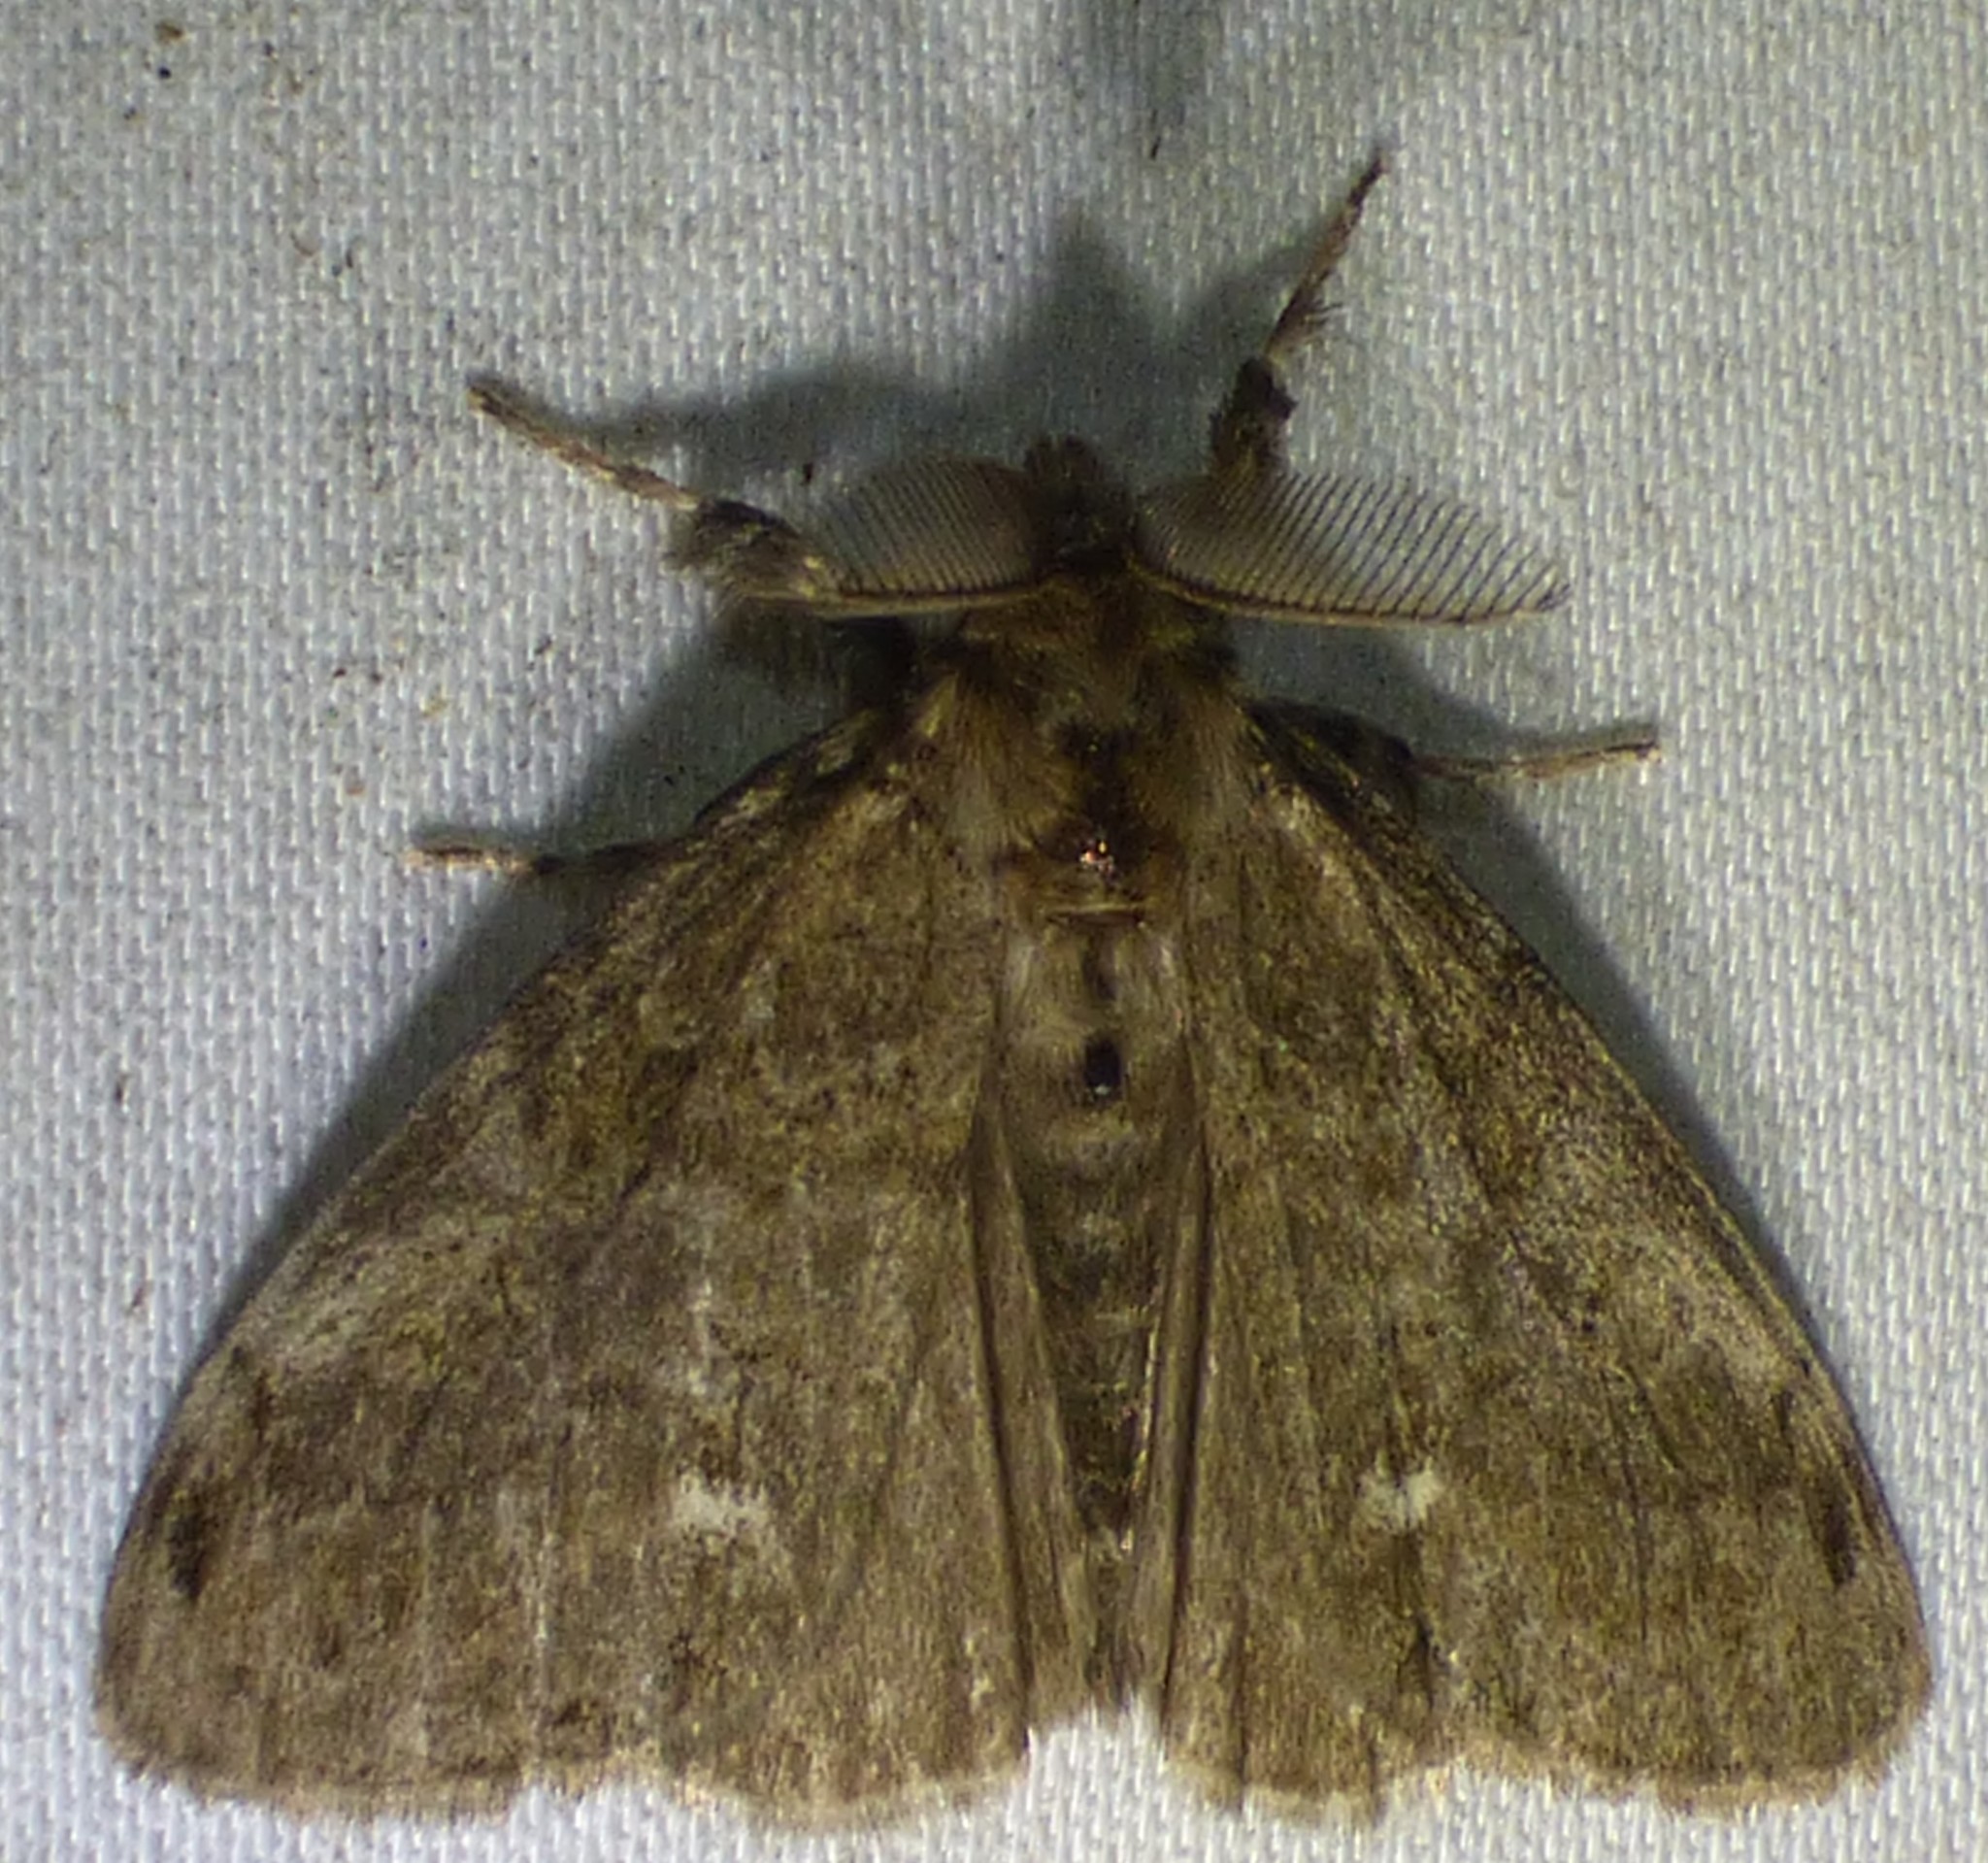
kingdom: Animalia
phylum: Arthropoda
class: Insecta
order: Lepidoptera
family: Erebidae
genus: Orgyia
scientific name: Orgyia leucostigma
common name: White-marked tussock moth
